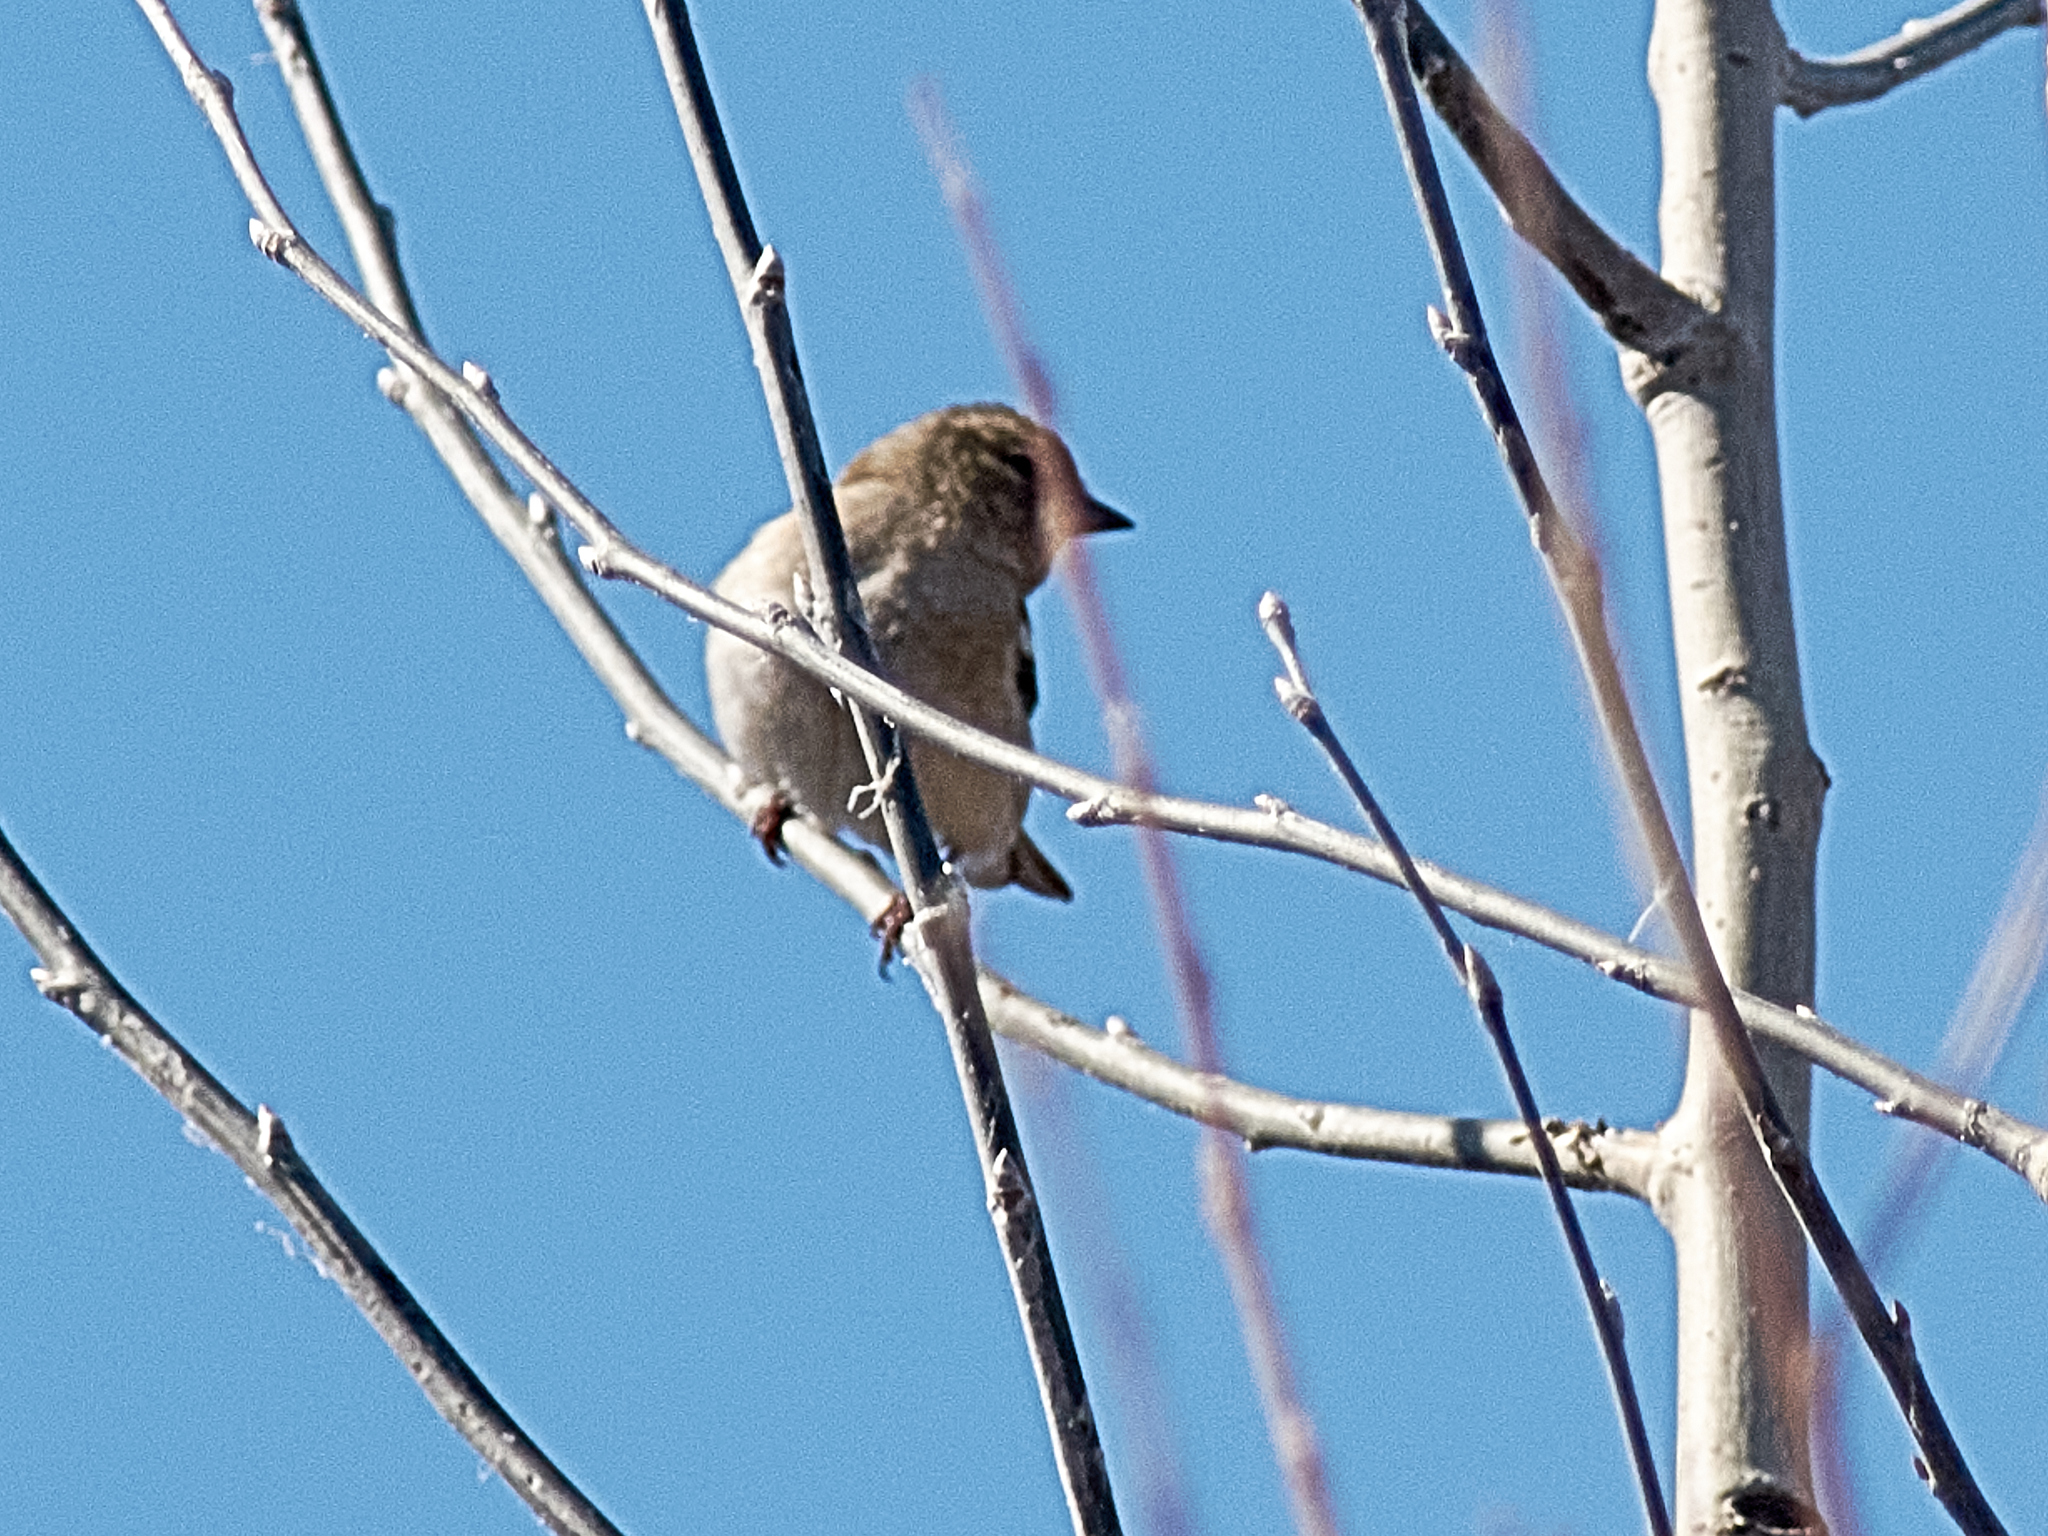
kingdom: Animalia
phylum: Chordata
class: Aves
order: Passeriformes
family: Fringillidae
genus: Fringilla
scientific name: Fringilla coelebs
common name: Common chaffinch
